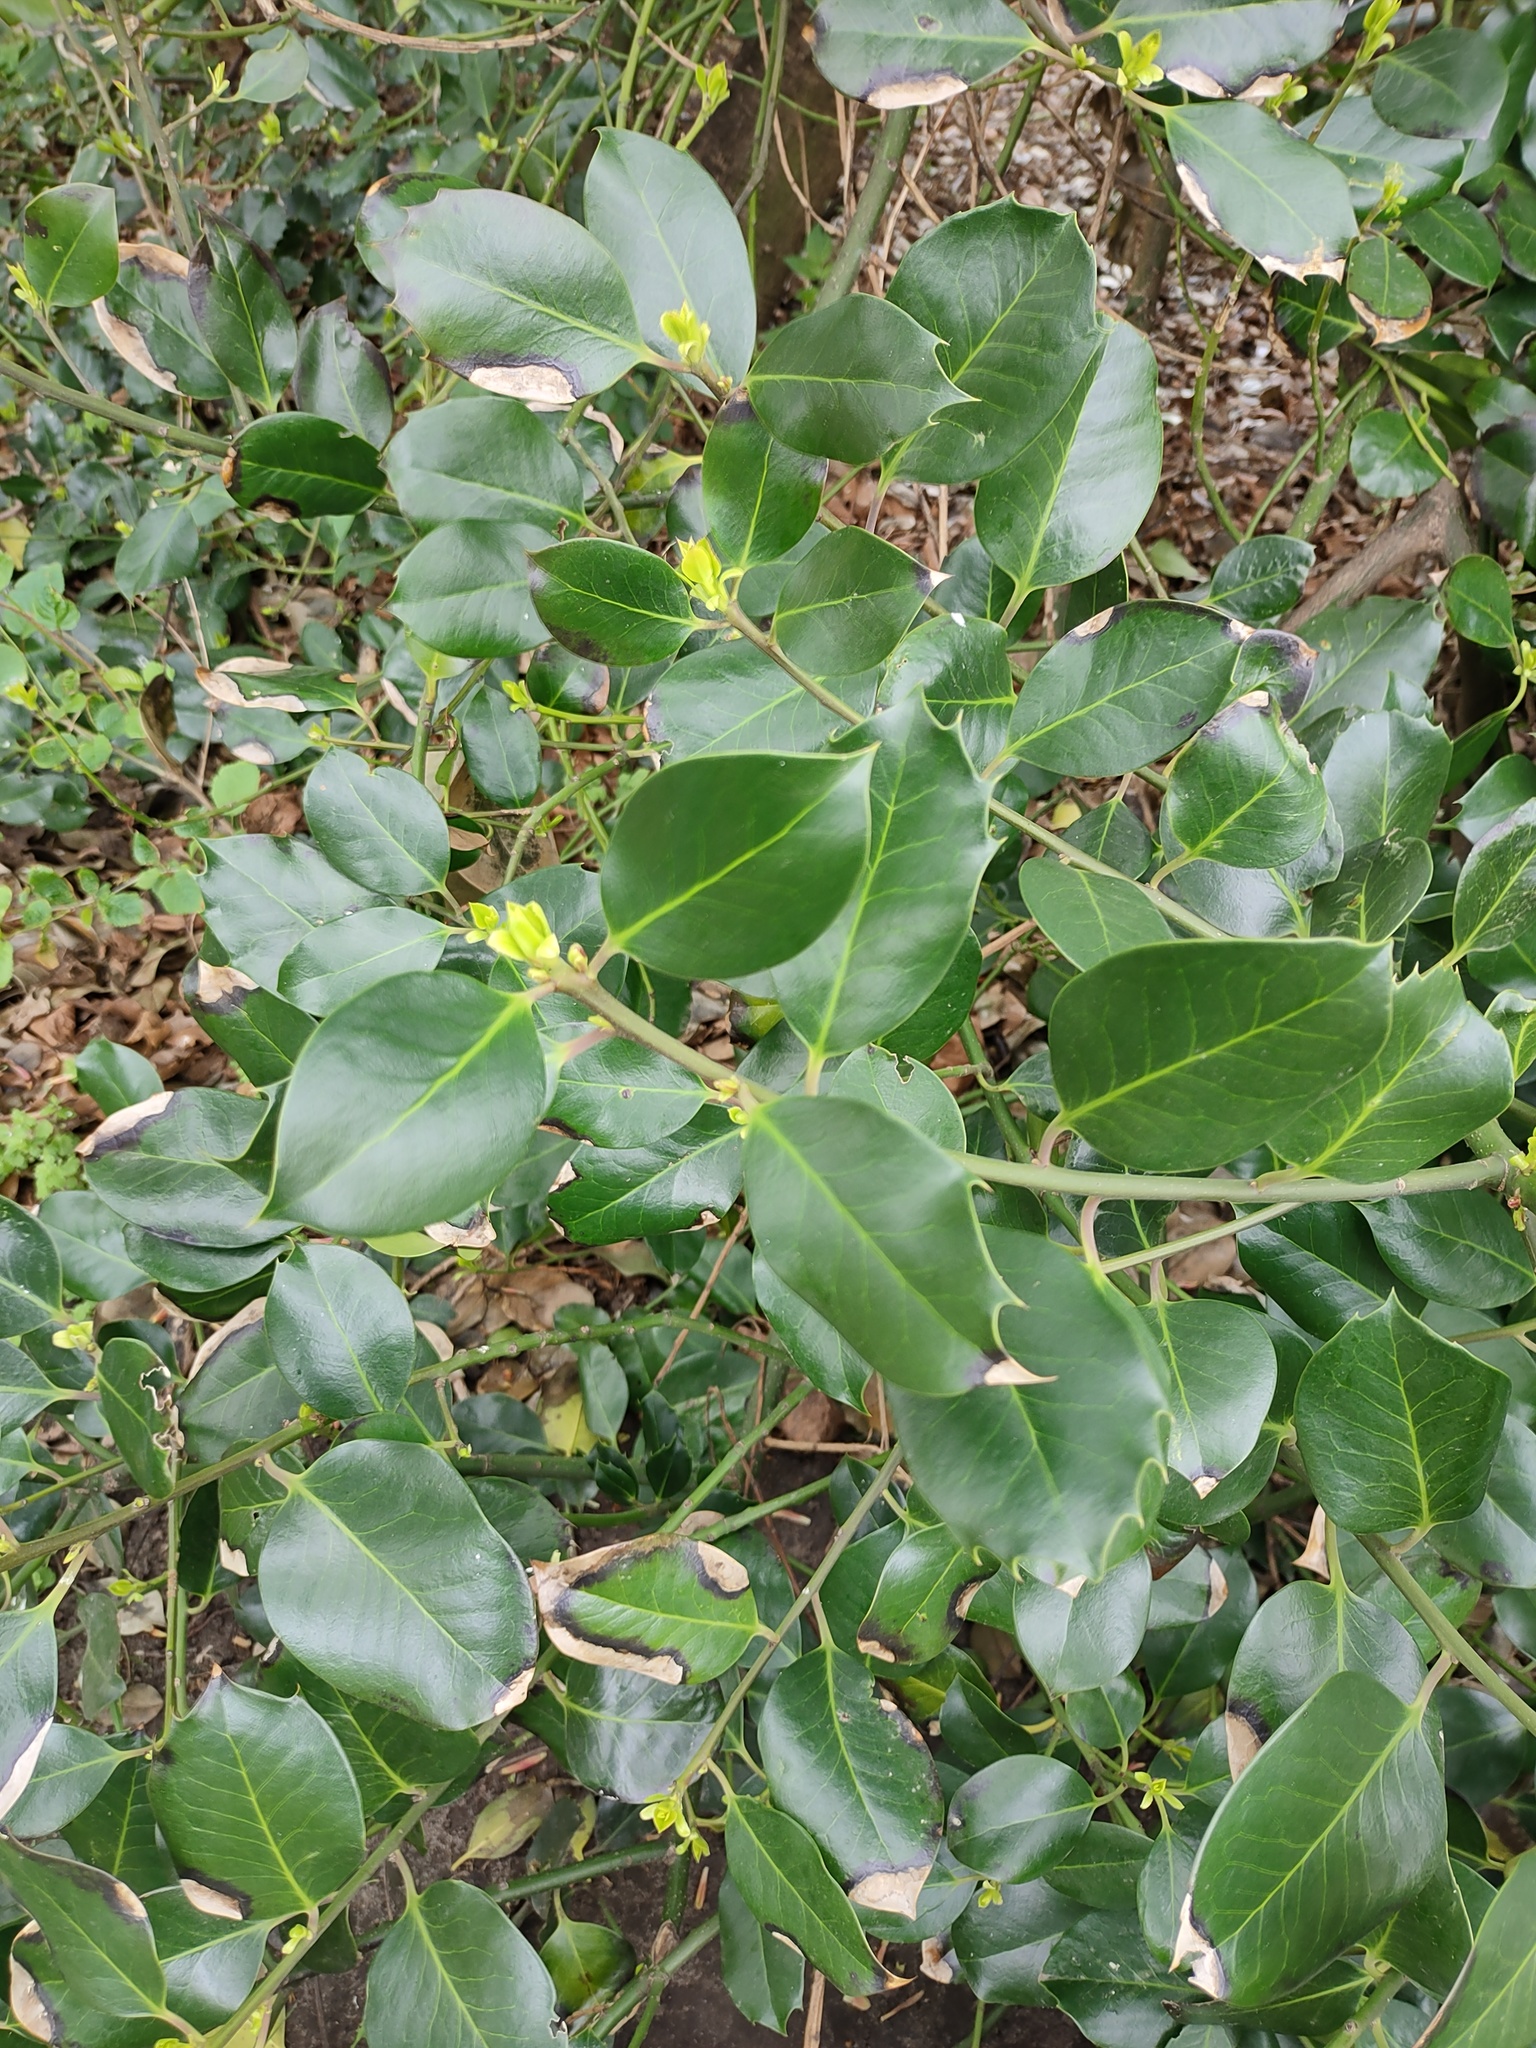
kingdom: Plantae
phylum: Tracheophyta
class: Magnoliopsida
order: Aquifoliales
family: Aquifoliaceae
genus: Ilex
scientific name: Ilex altaclerensis
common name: Highclere holly
